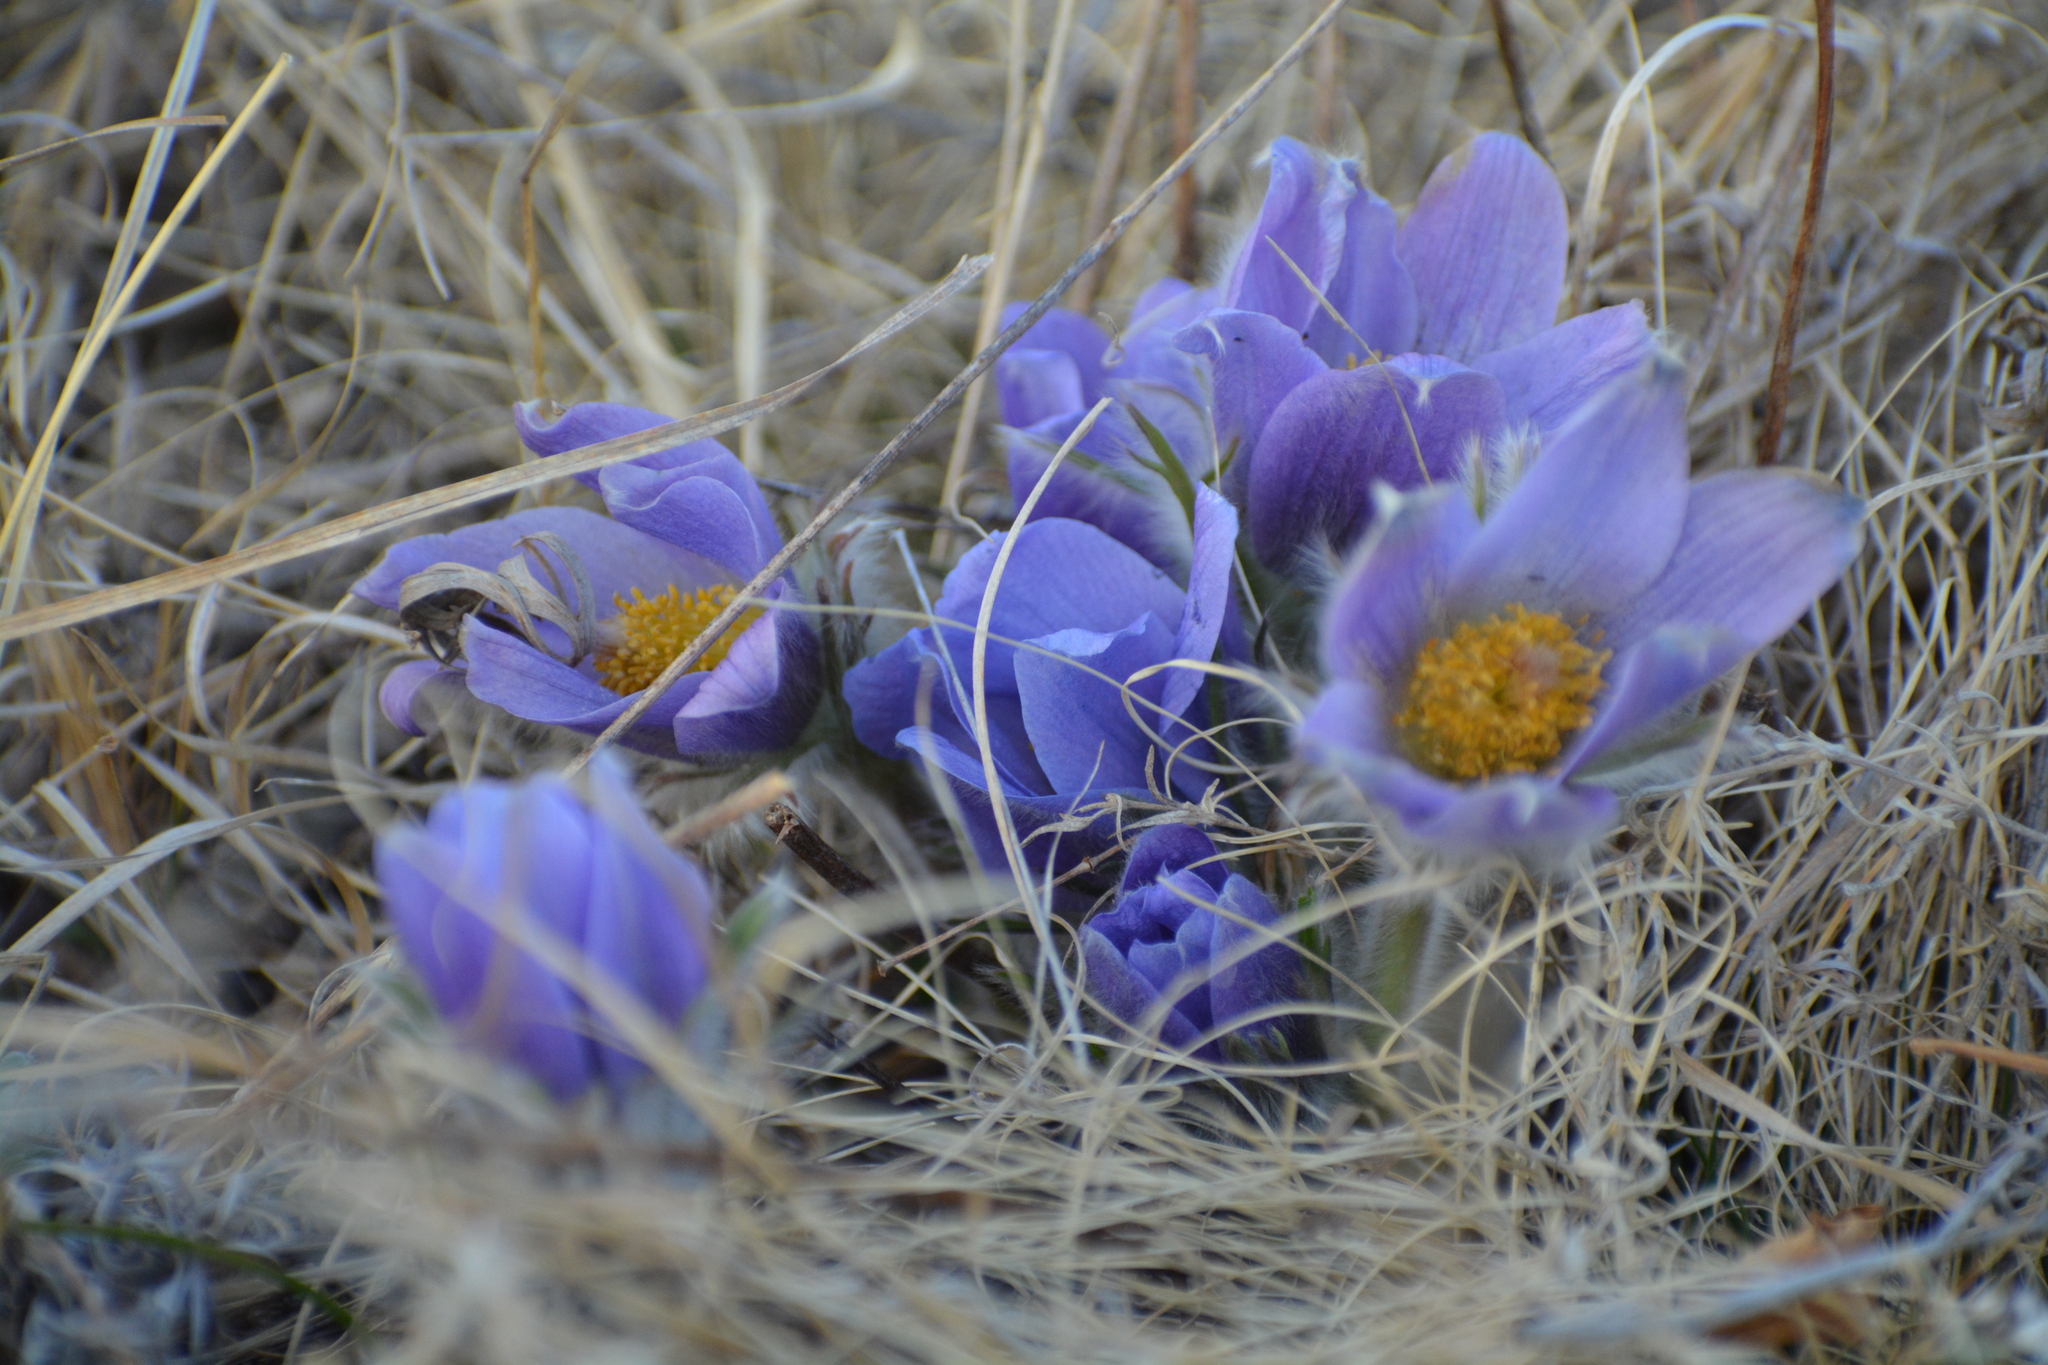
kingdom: Plantae
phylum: Tracheophyta
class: Magnoliopsida
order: Ranunculales
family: Ranunculaceae
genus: Pulsatilla
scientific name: Pulsatilla turczaninovii
